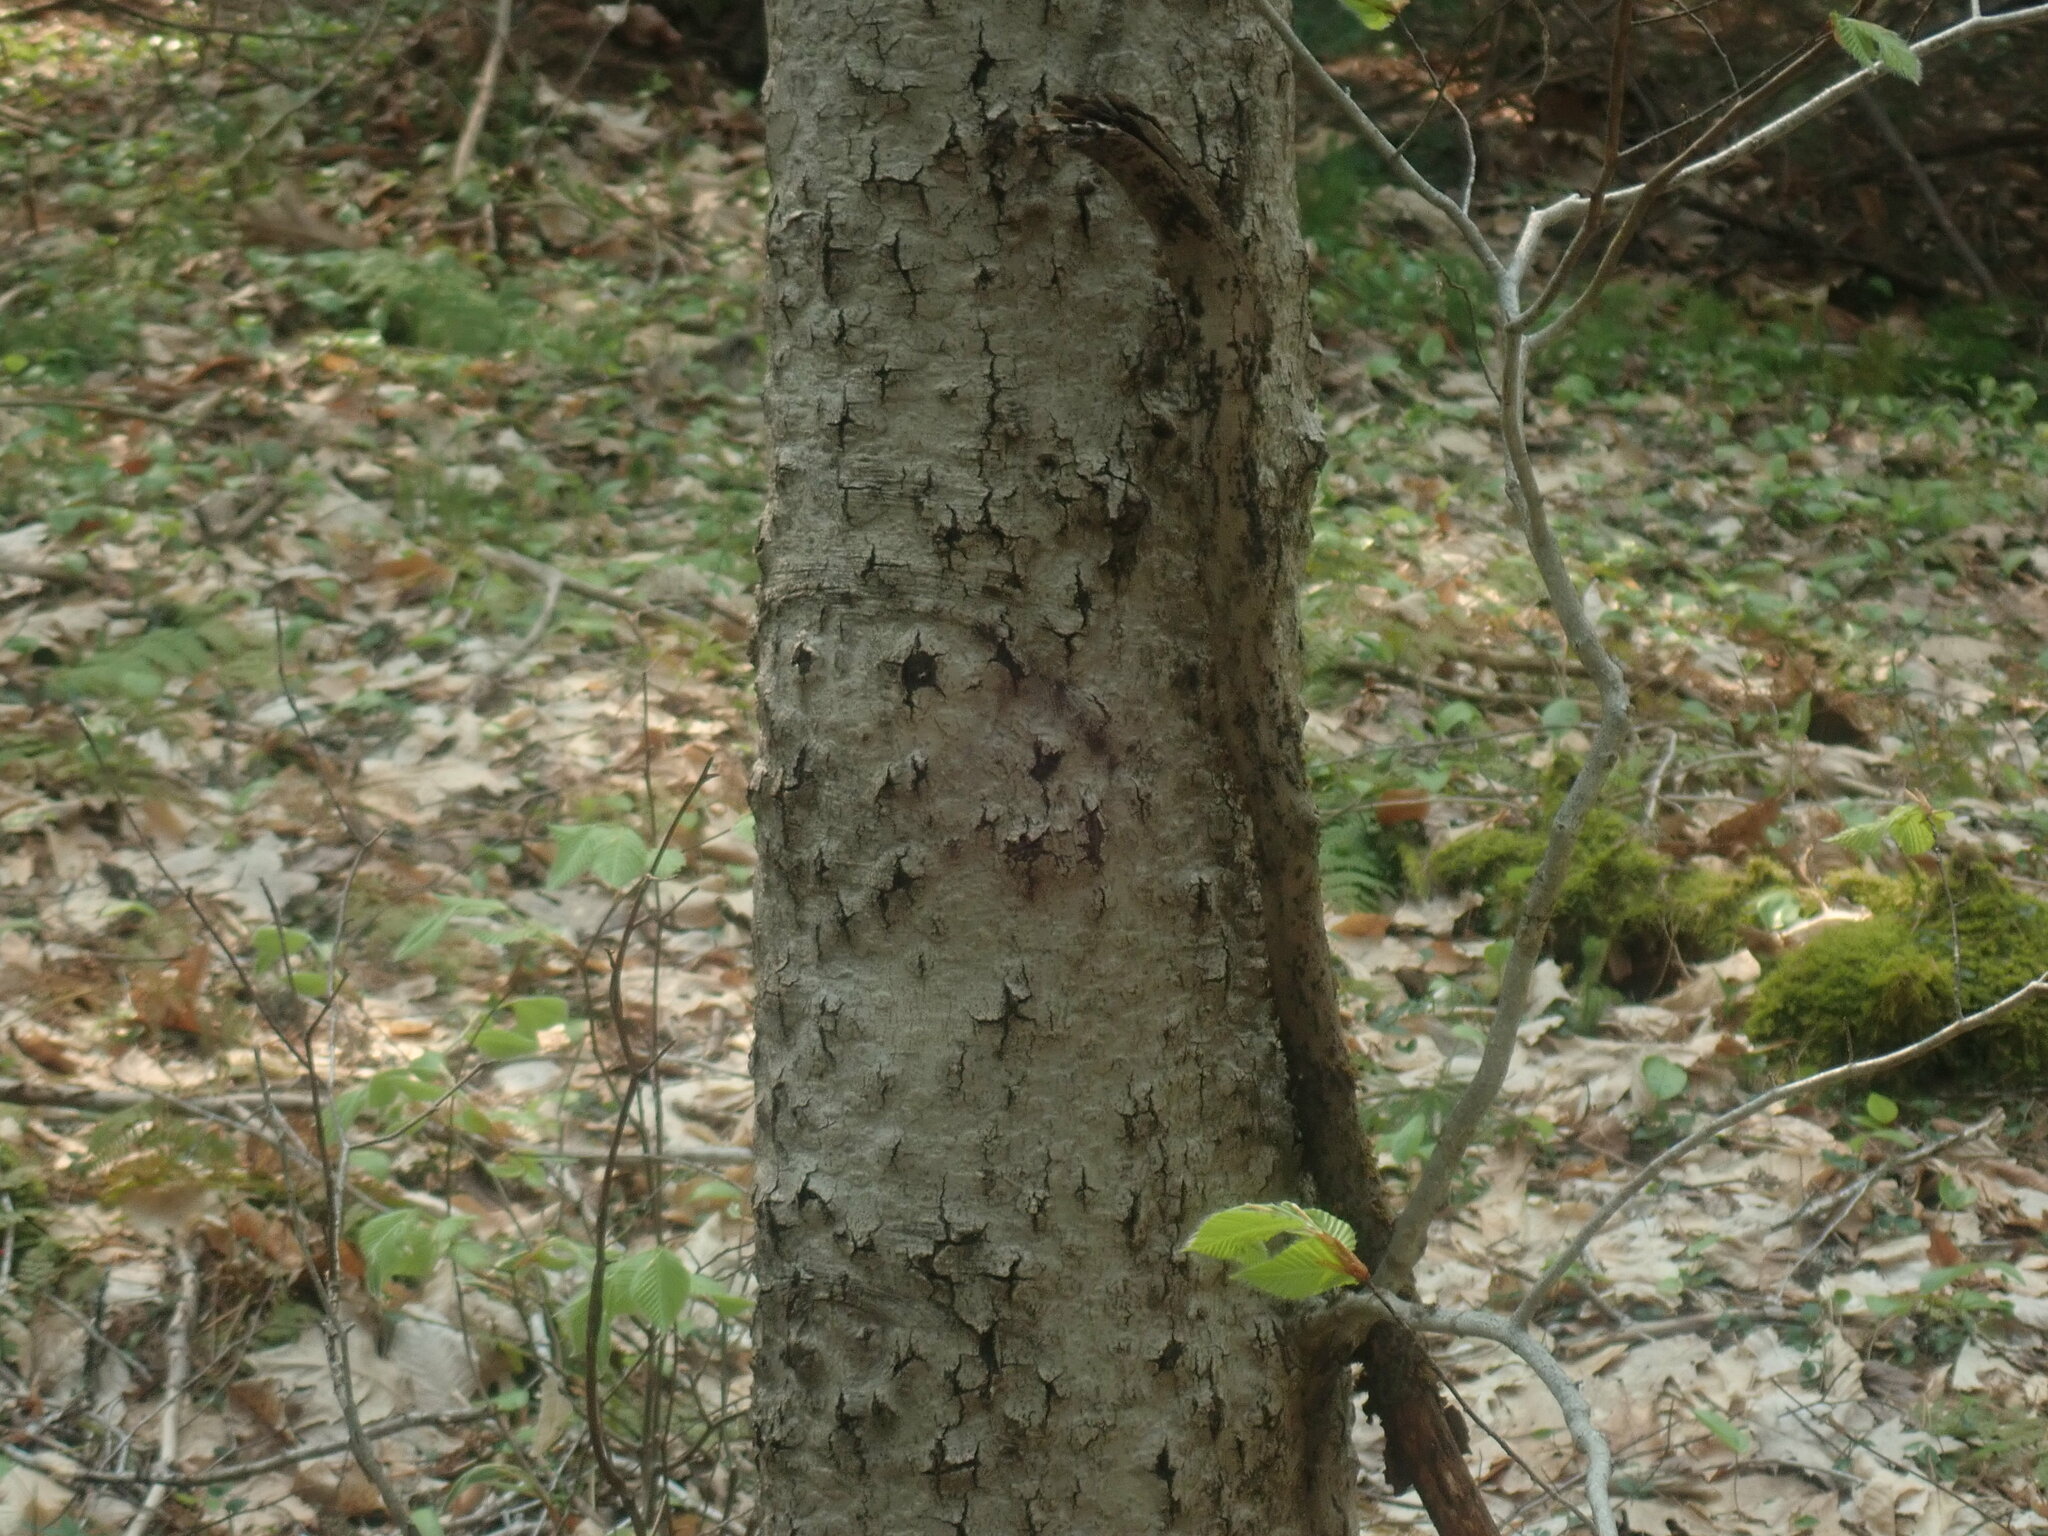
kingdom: Fungi
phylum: Ascomycota
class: Sordariomycetes
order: Hypocreales
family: Nectriaceae
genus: Neonectria
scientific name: Neonectria faginata
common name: Beech bark canker
